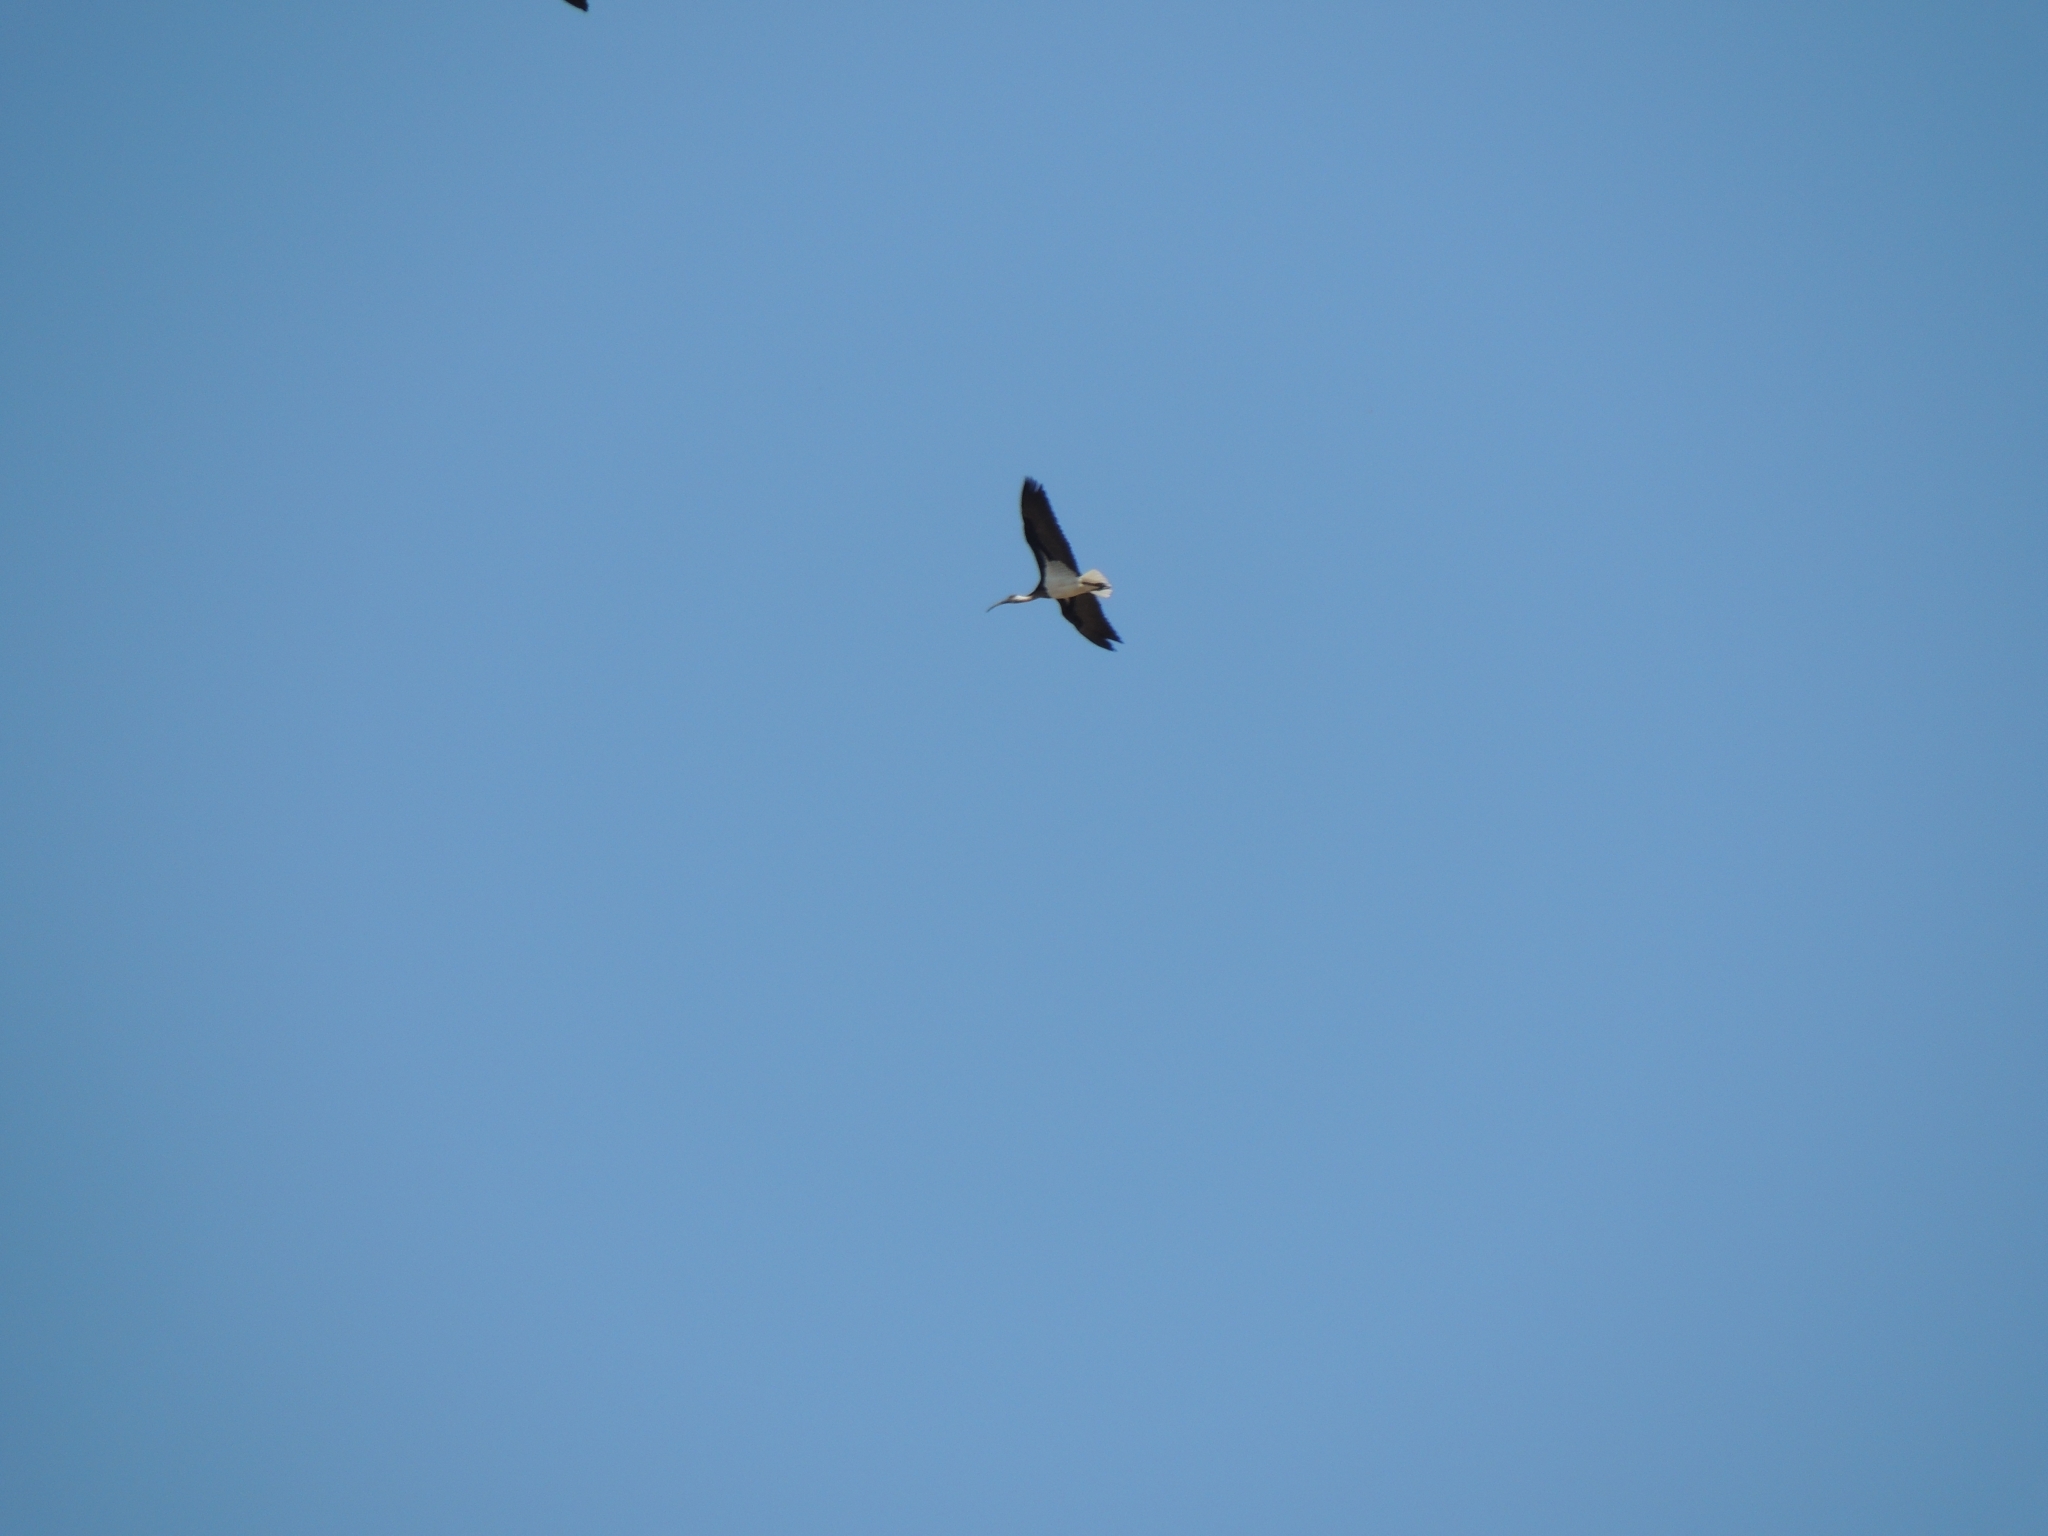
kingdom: Animalia
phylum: Chordata
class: Aves
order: Pelecaniformes
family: Threskiornithidae
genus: Threskiornis
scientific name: Threskiornis spinicollis
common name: Straw-necked ibis
